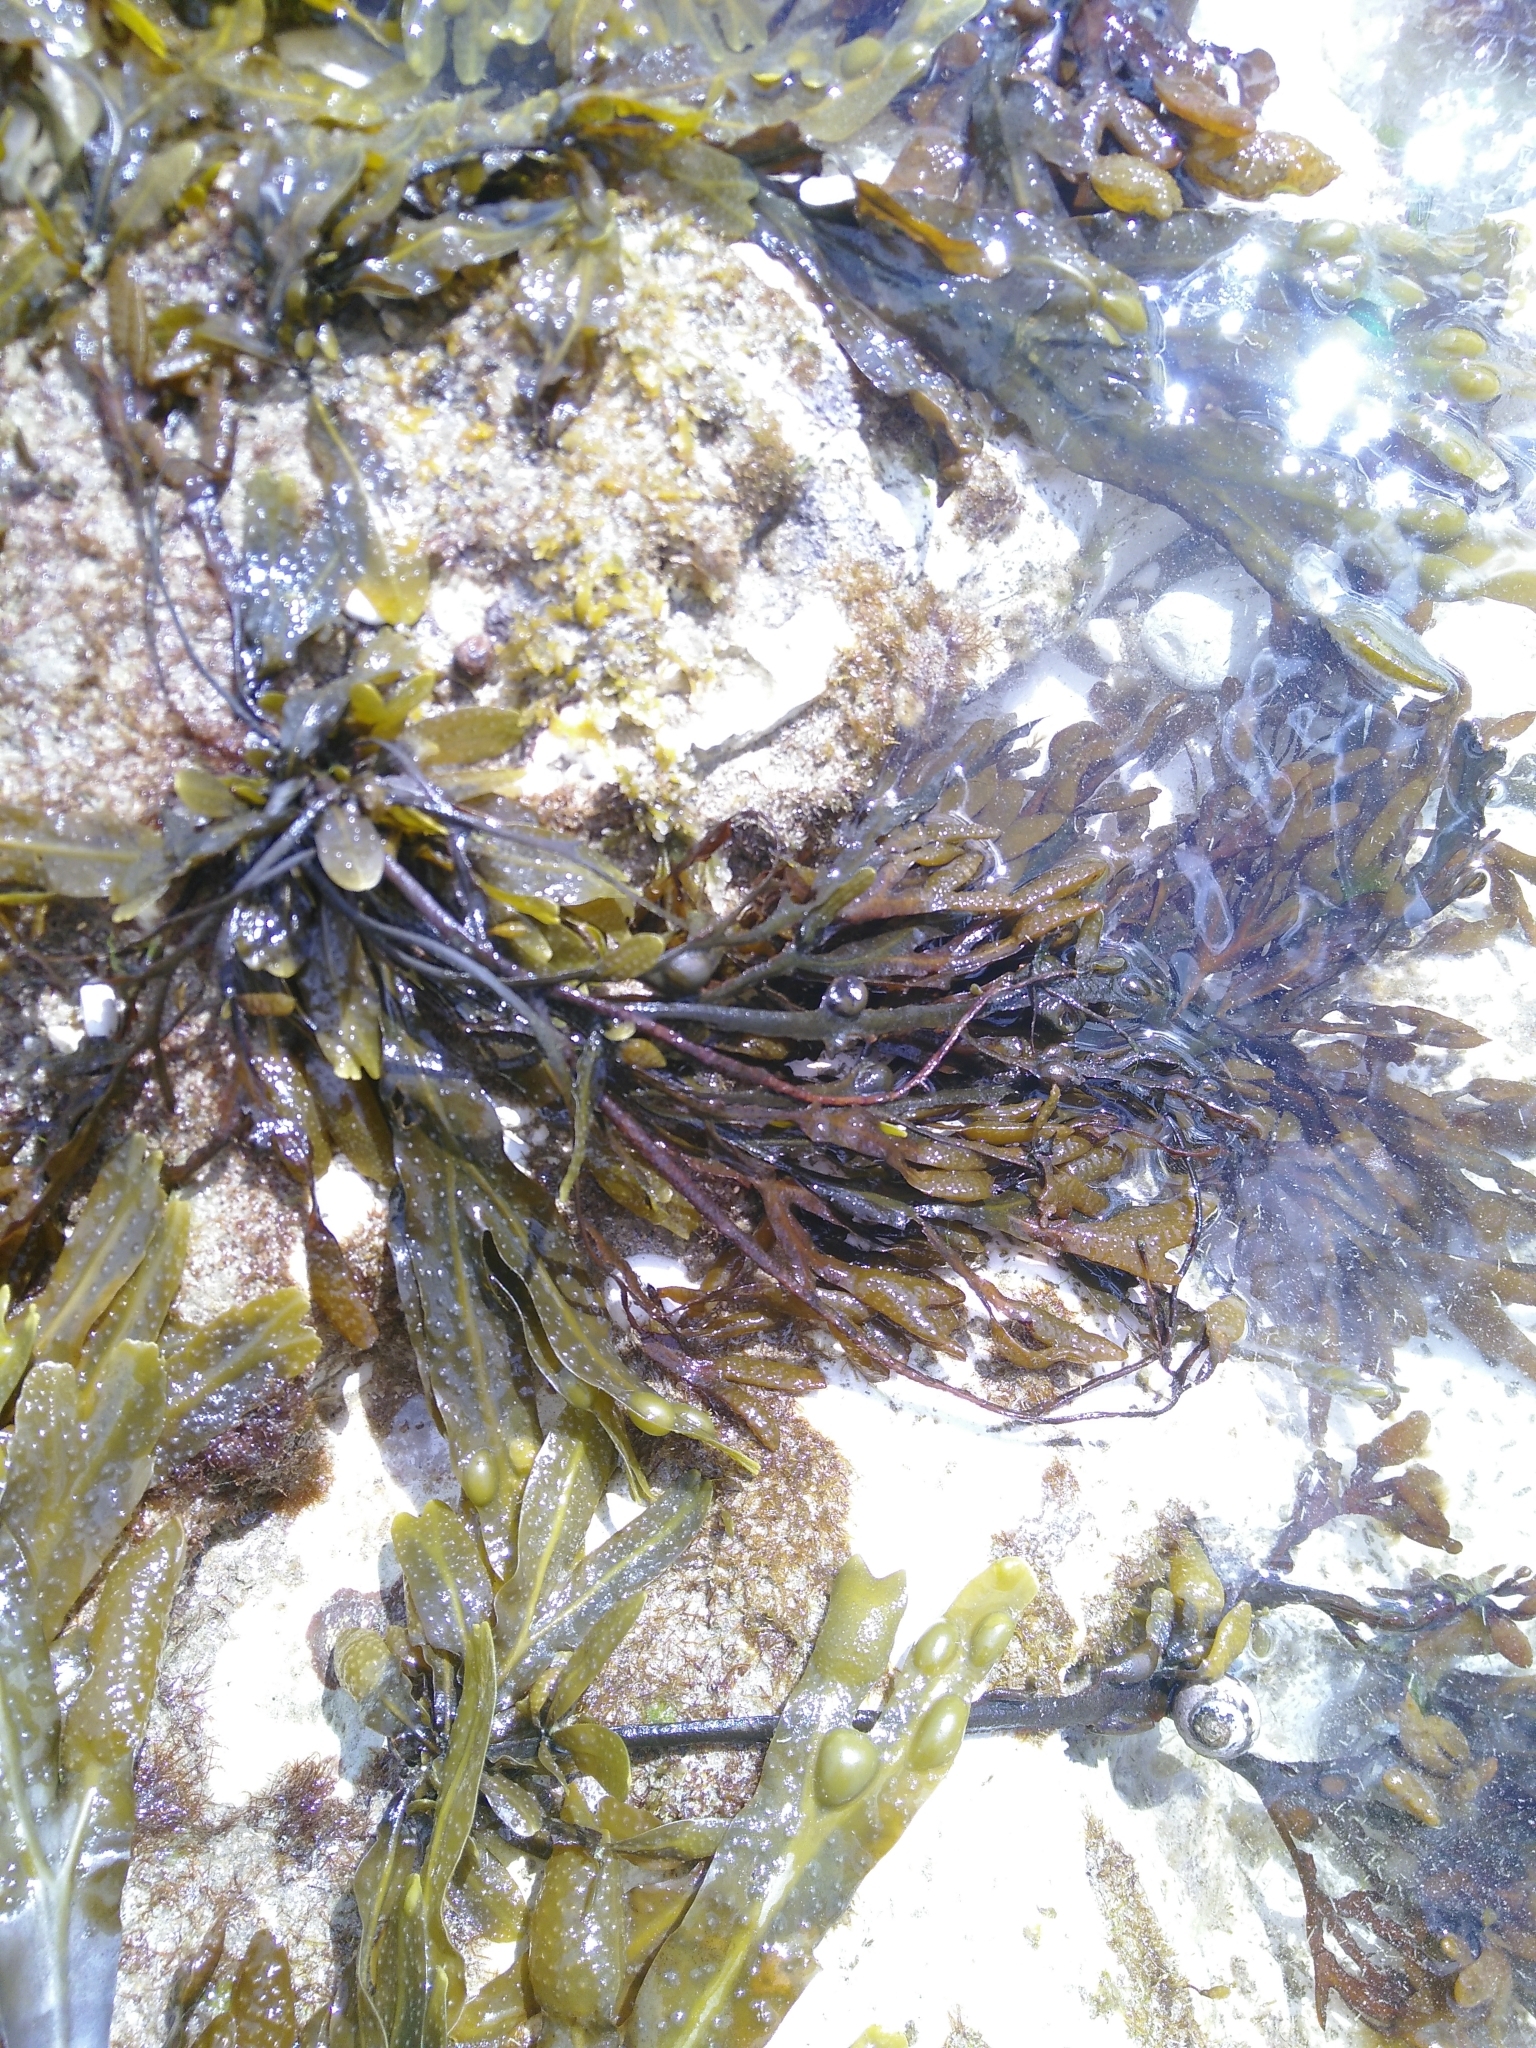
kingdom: Chromista
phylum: Ochrophyta
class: Phaeophyceae
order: Fucales
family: Fucaceae
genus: Fucus
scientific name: Fucus vesiculosus
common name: Bladder wrack
